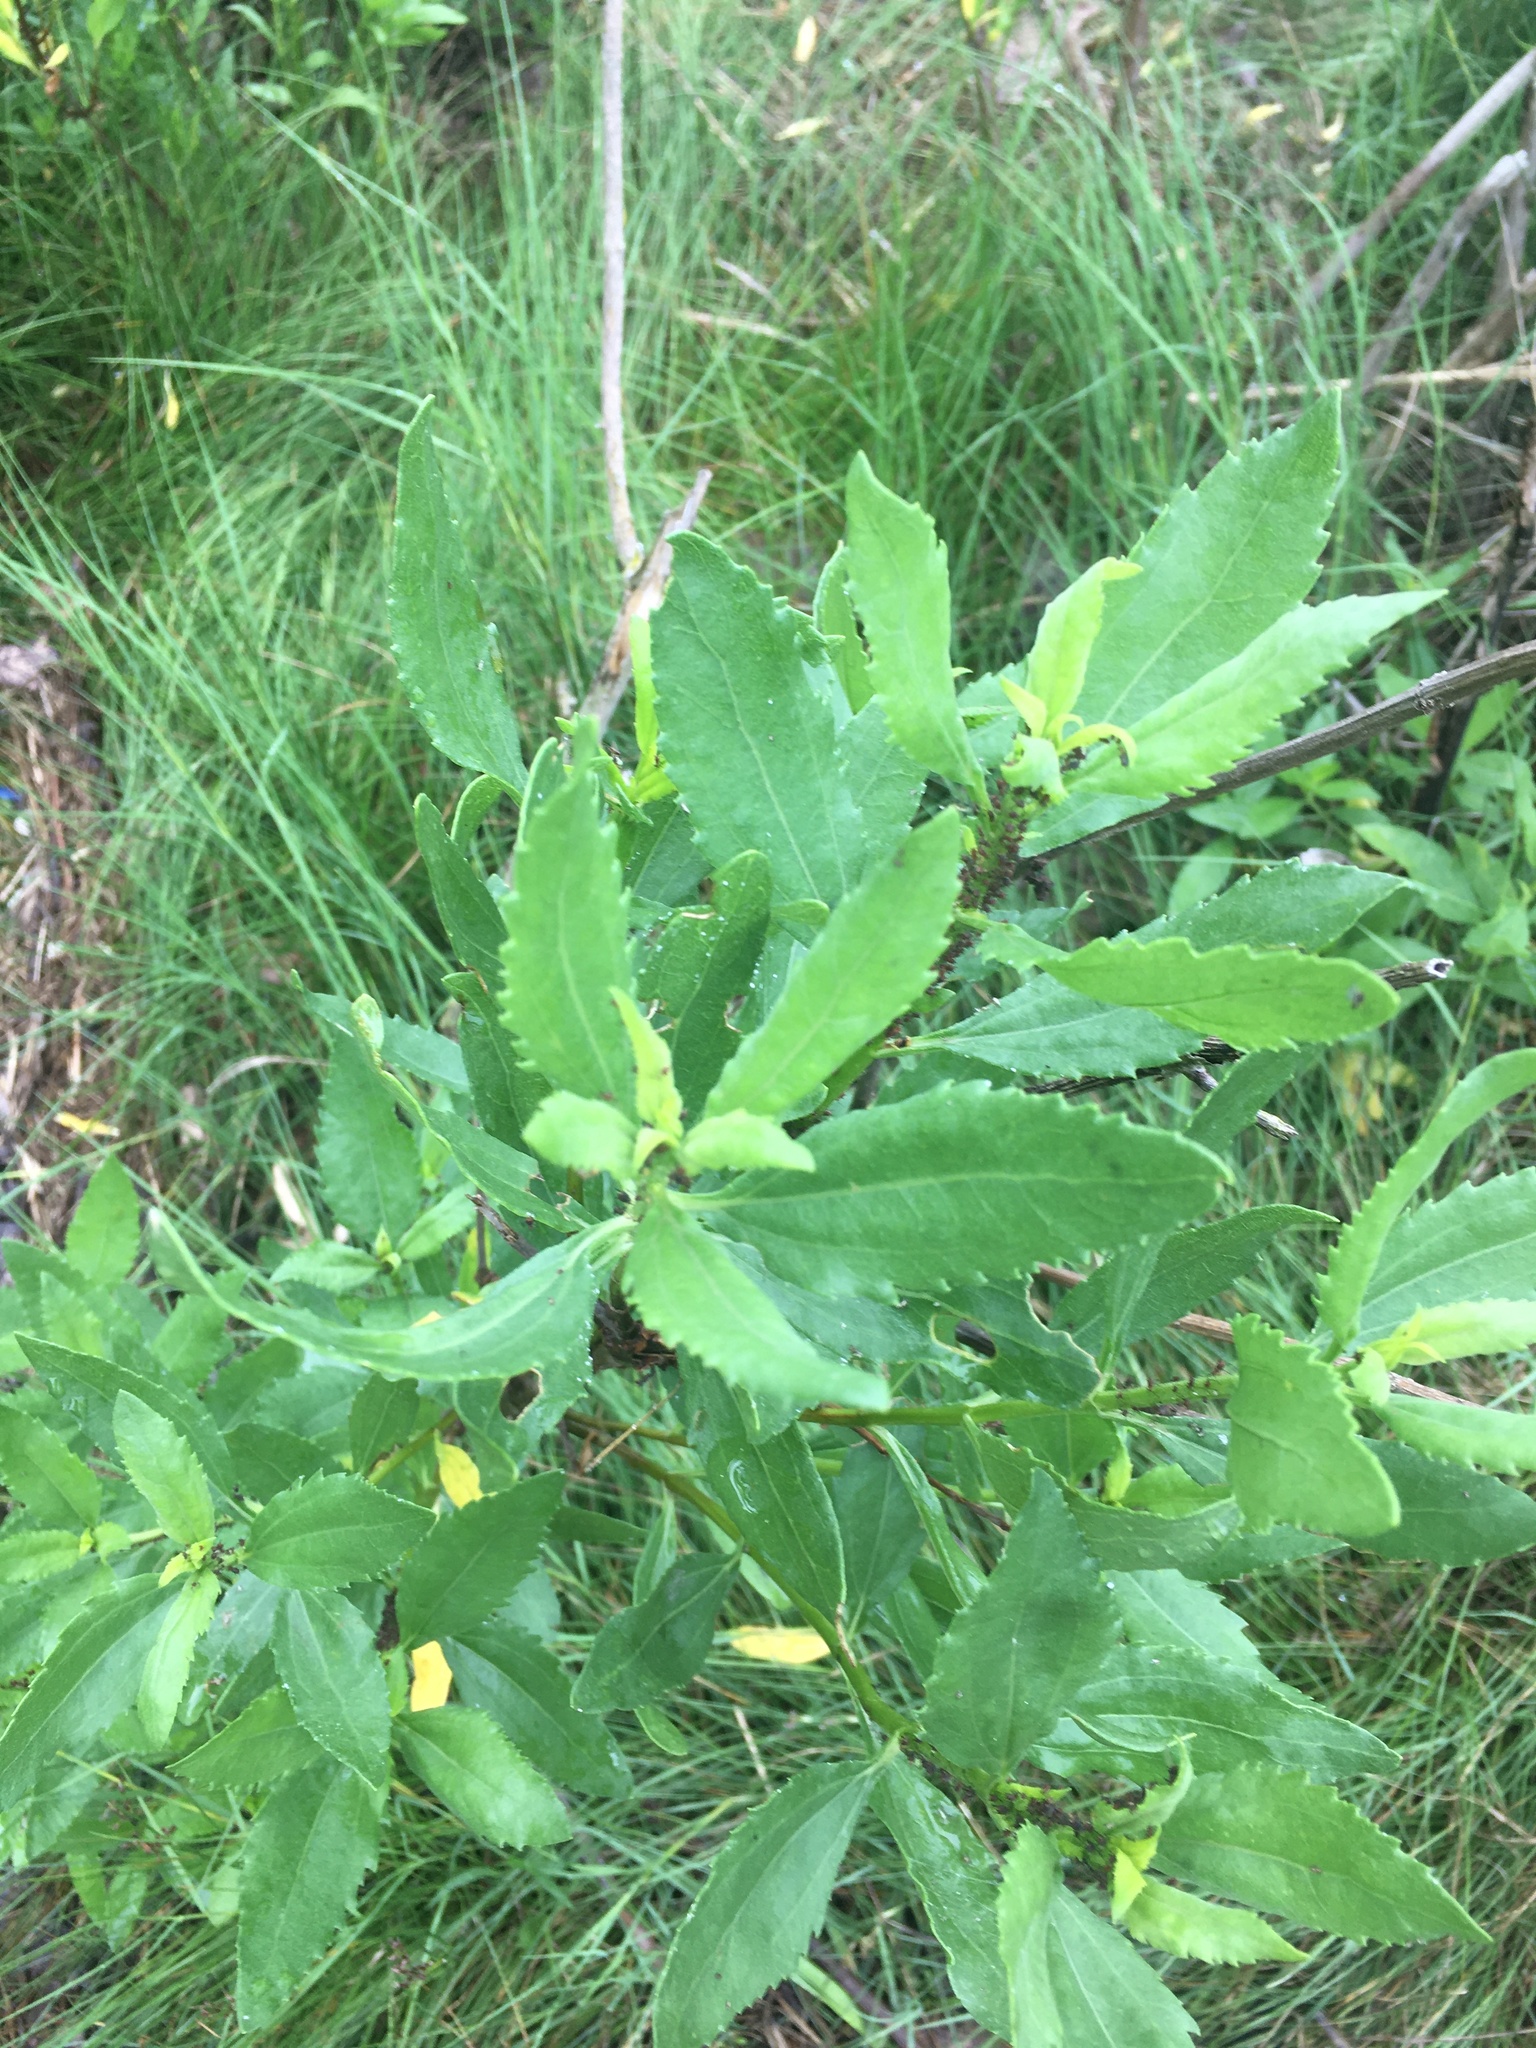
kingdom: Plantae
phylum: Tracheophyta
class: Magnoliopsida
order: Asterales
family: Asteraceae
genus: Iva
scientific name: Iva frutescens
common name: Big-leaved marsh-elder
